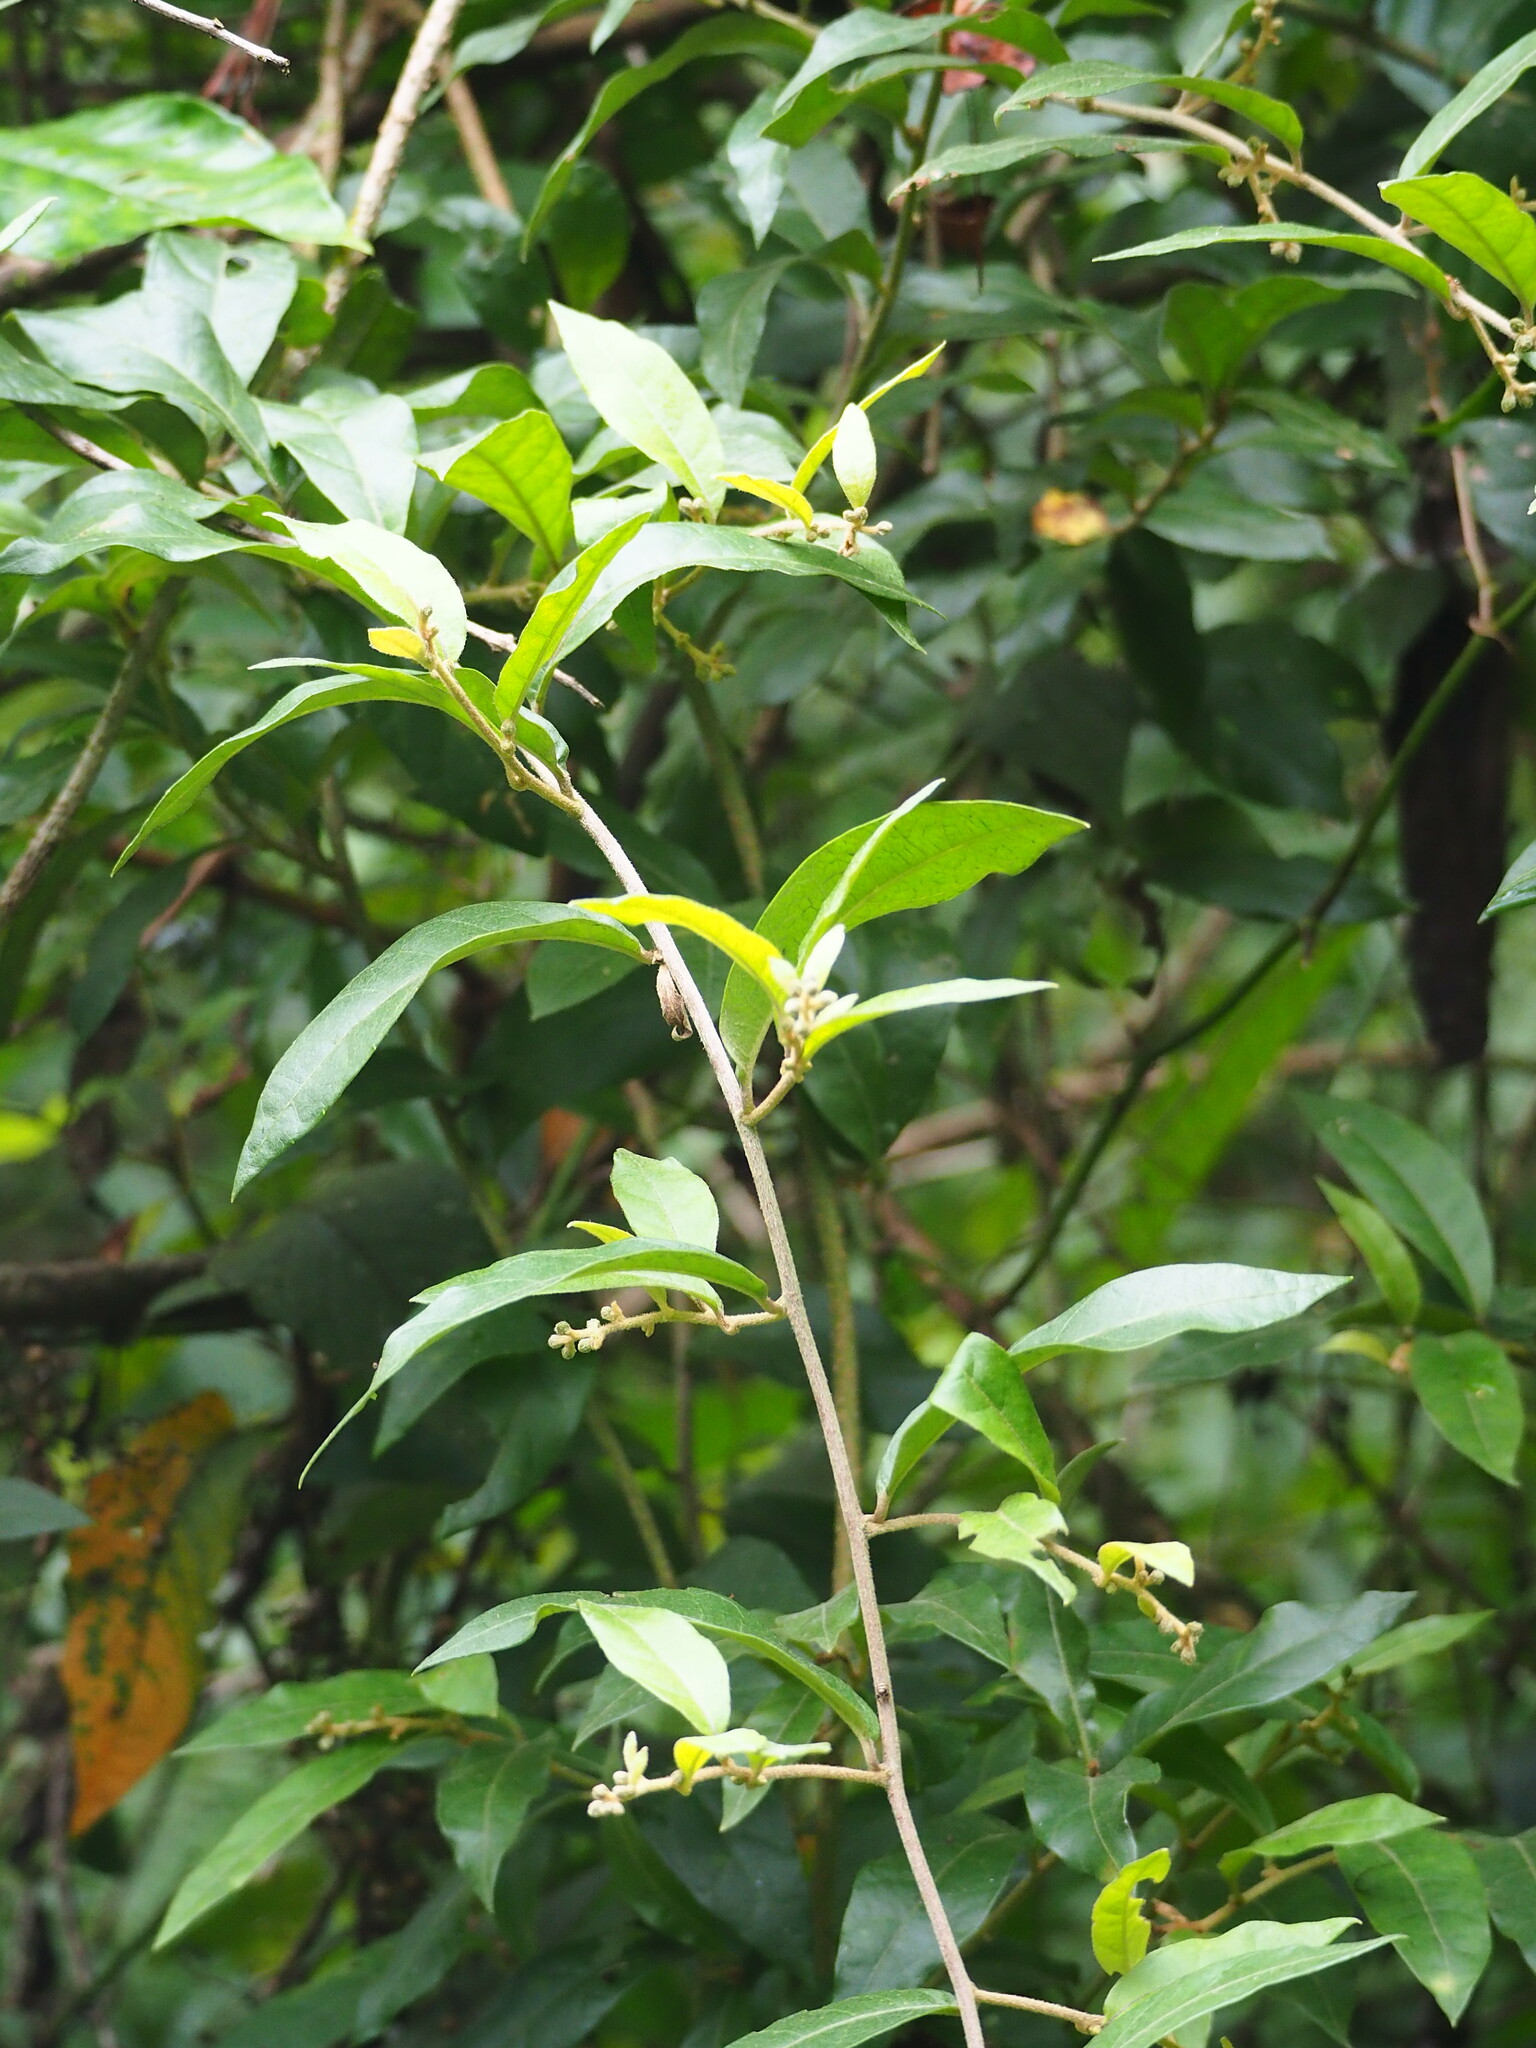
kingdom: Plantae
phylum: Tracheophyta
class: Magnoliopsida
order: Asterales
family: Asteraceae
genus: Decaneuropsis
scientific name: Decaneuropsis gratiosa
